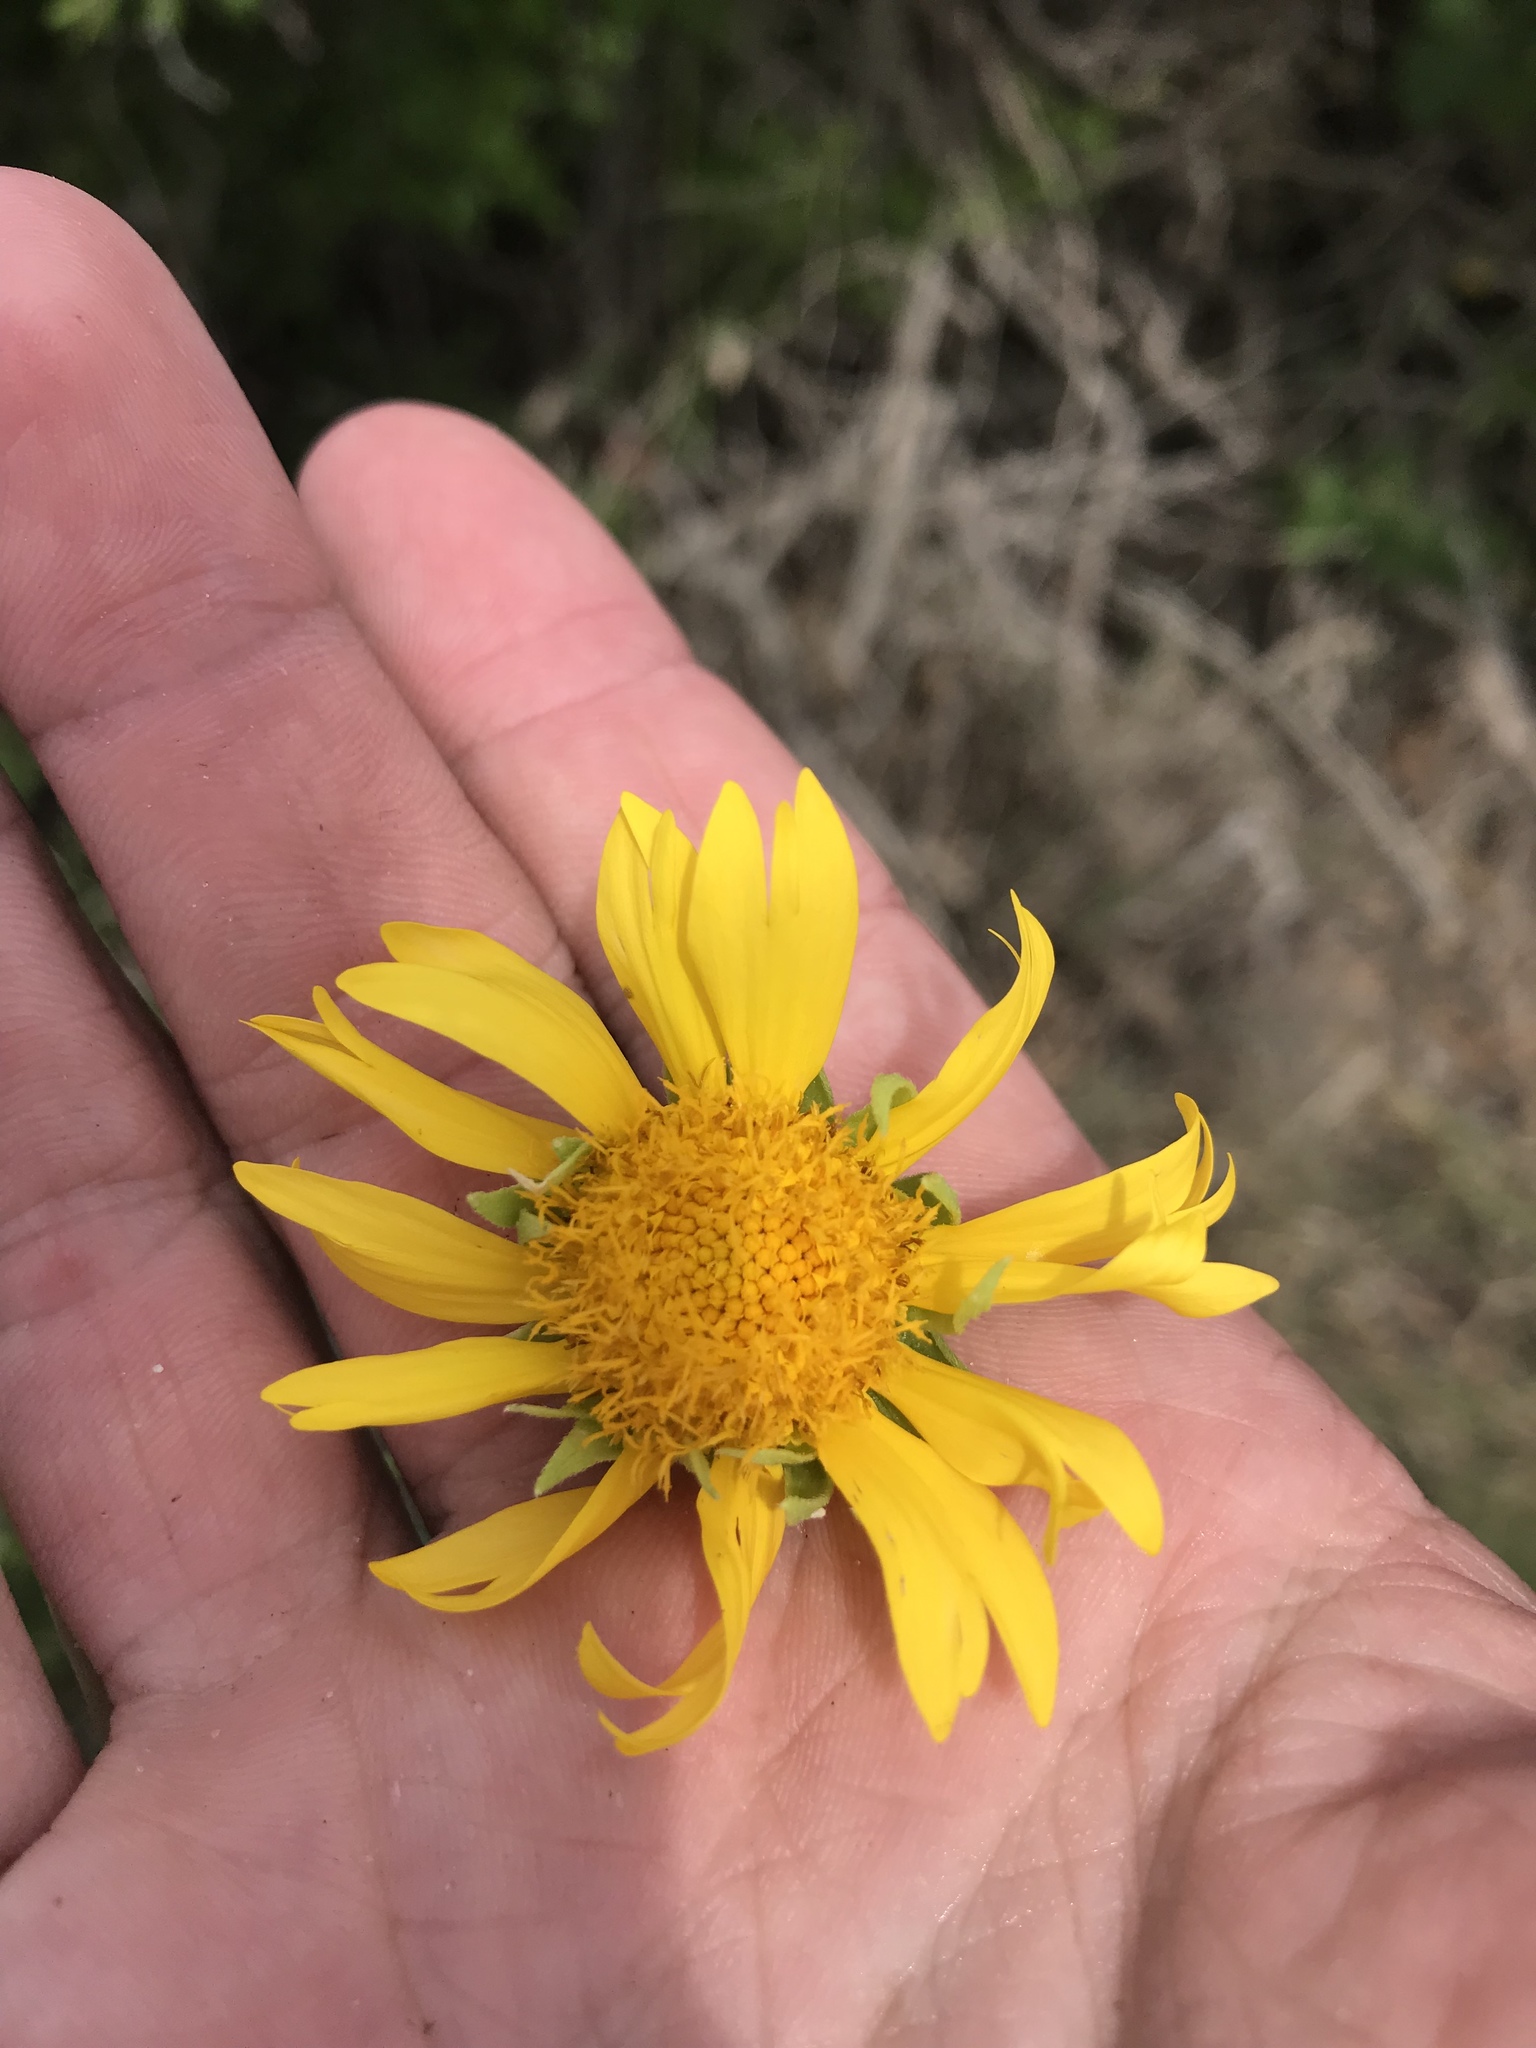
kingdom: Plantae
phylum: Tracheophyta
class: Magnoliopsida
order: Asterales
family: Asteraceae
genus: Verbesina
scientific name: Verbesina encelioides
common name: Golden crownbeard
